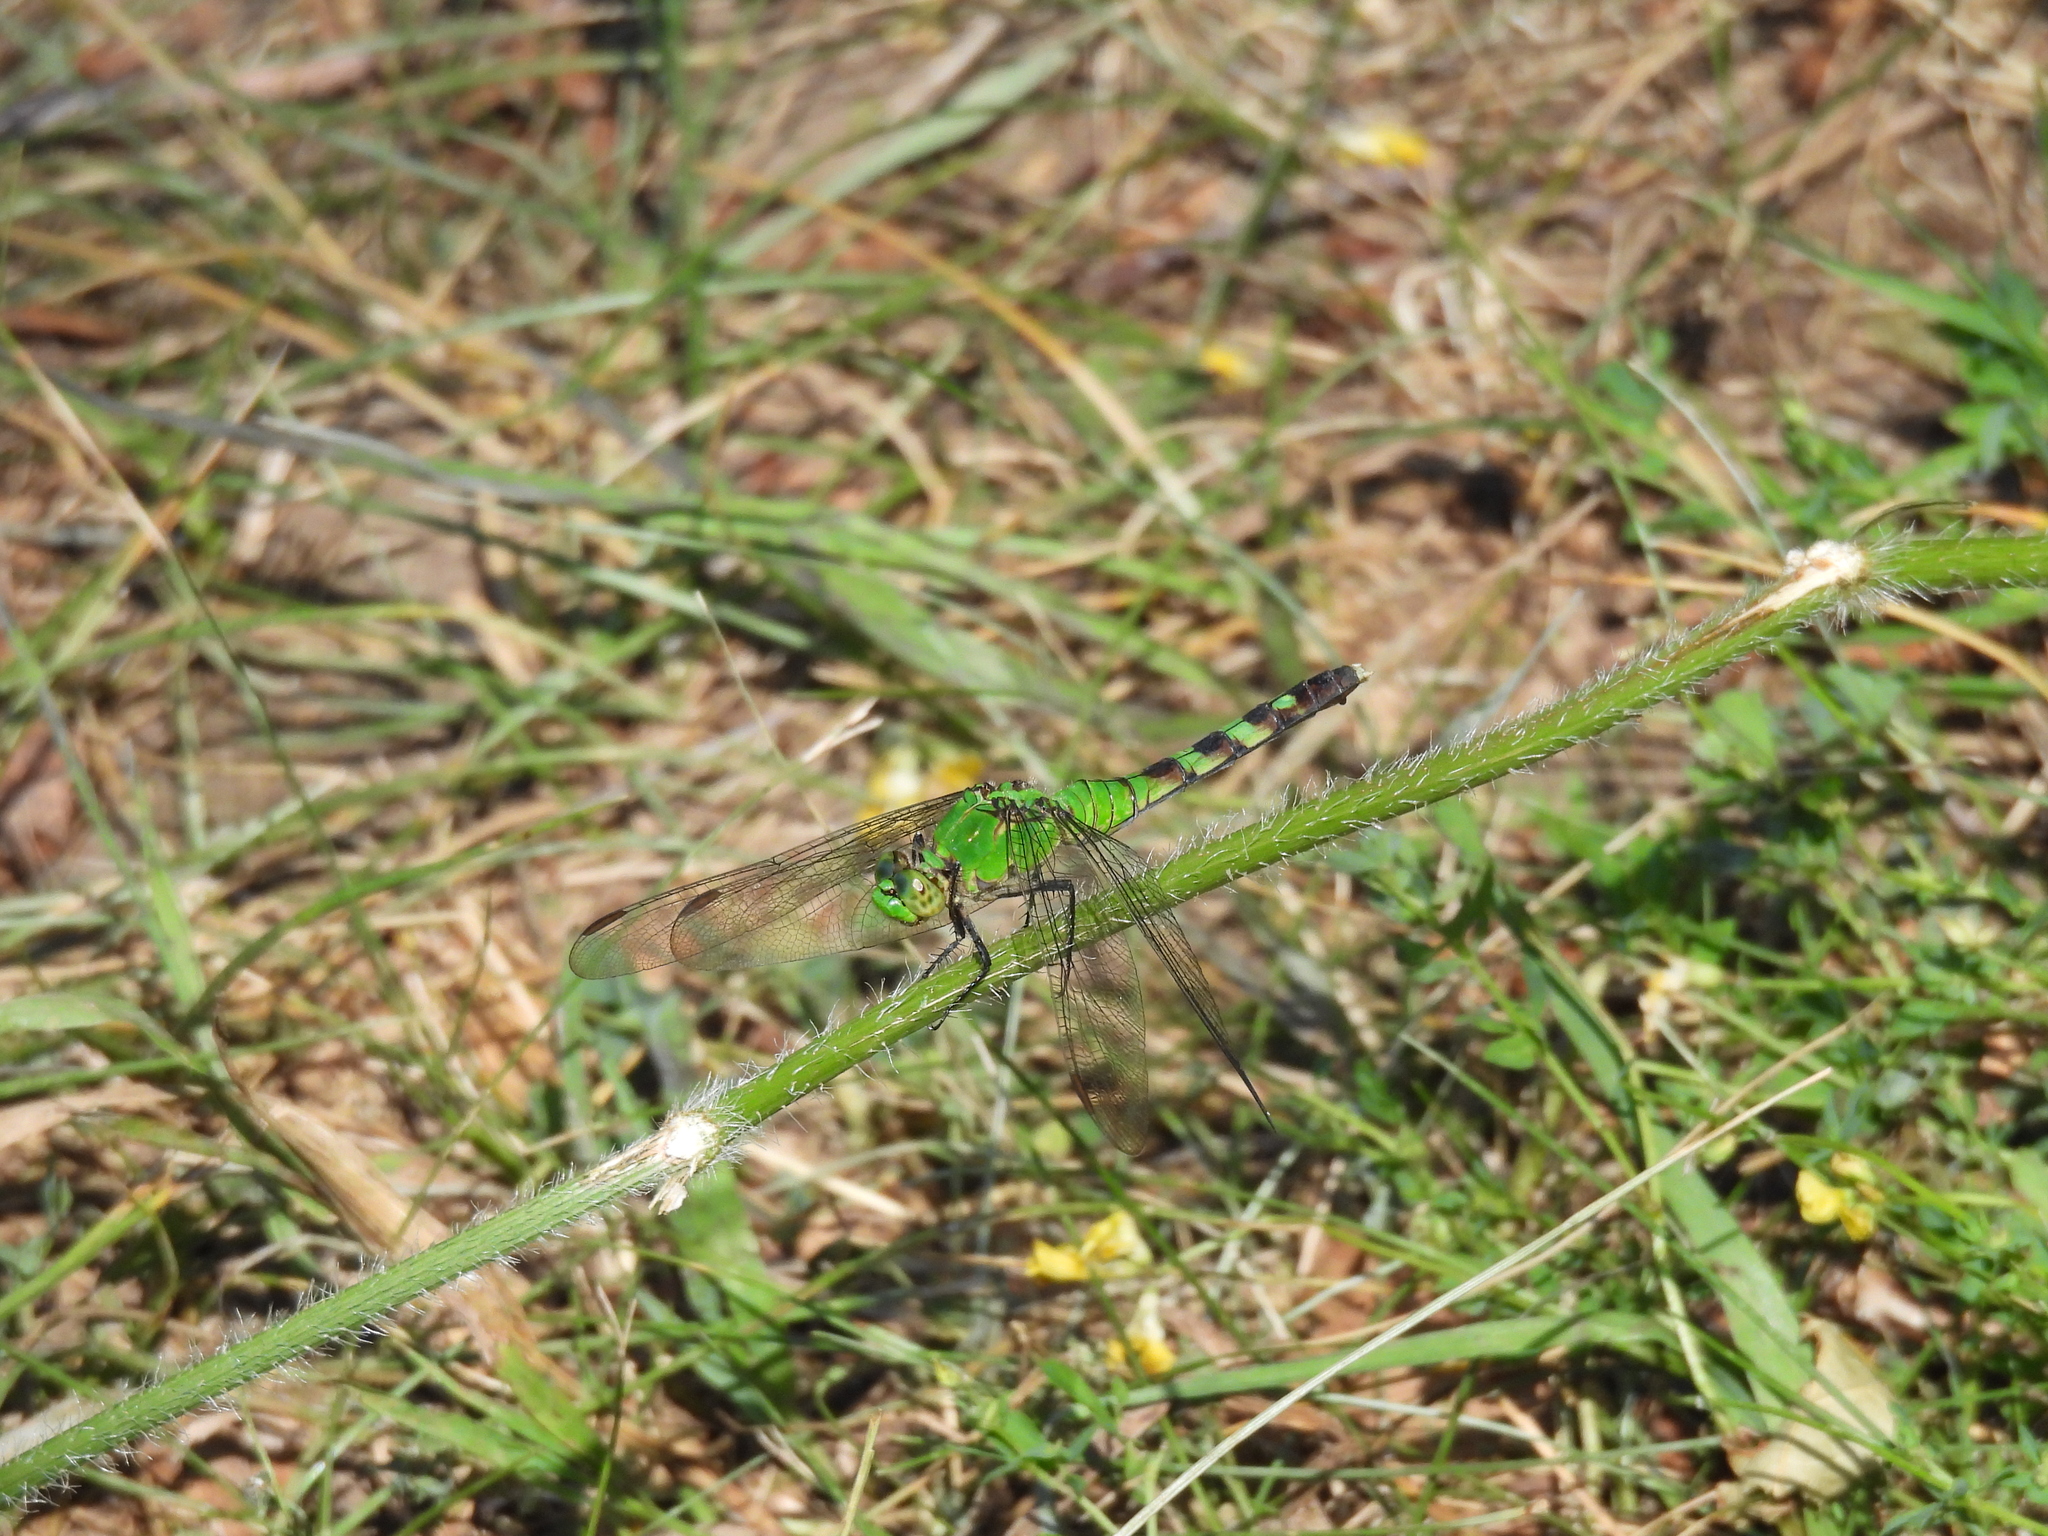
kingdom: Animalia
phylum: Arthropoda
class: Insecta
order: Odonata
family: Libellulidae
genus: Erythemis
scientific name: Erythemis simplicicollis
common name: Eastern pondhawk
